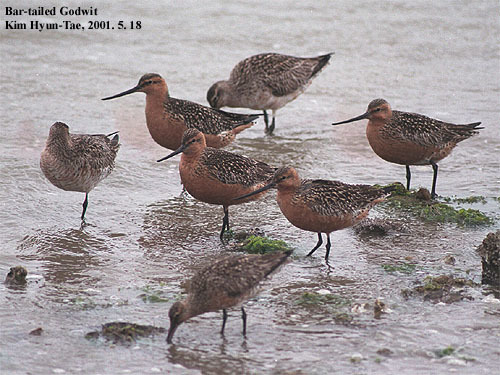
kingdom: Animalia
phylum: Chordata
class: Aves
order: Charadriiformes
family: Scolopacidae
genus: Limosa
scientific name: Limosa lapponica
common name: Bar-tailed godwit
